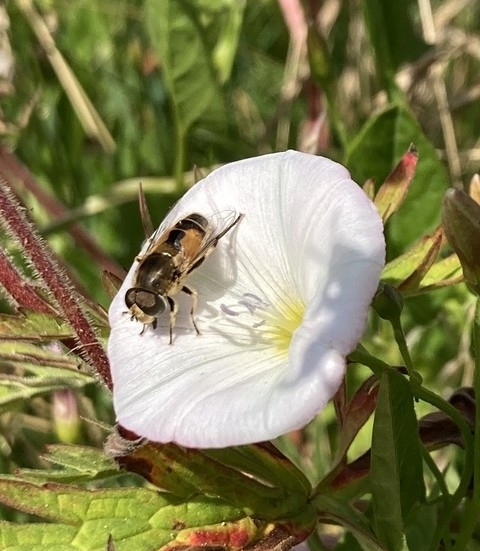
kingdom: Animalia
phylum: Arthropoda
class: Insecta
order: Diptera
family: Syrphidae
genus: Eristalis
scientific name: Eristalis arbustorum
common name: Hover fly
